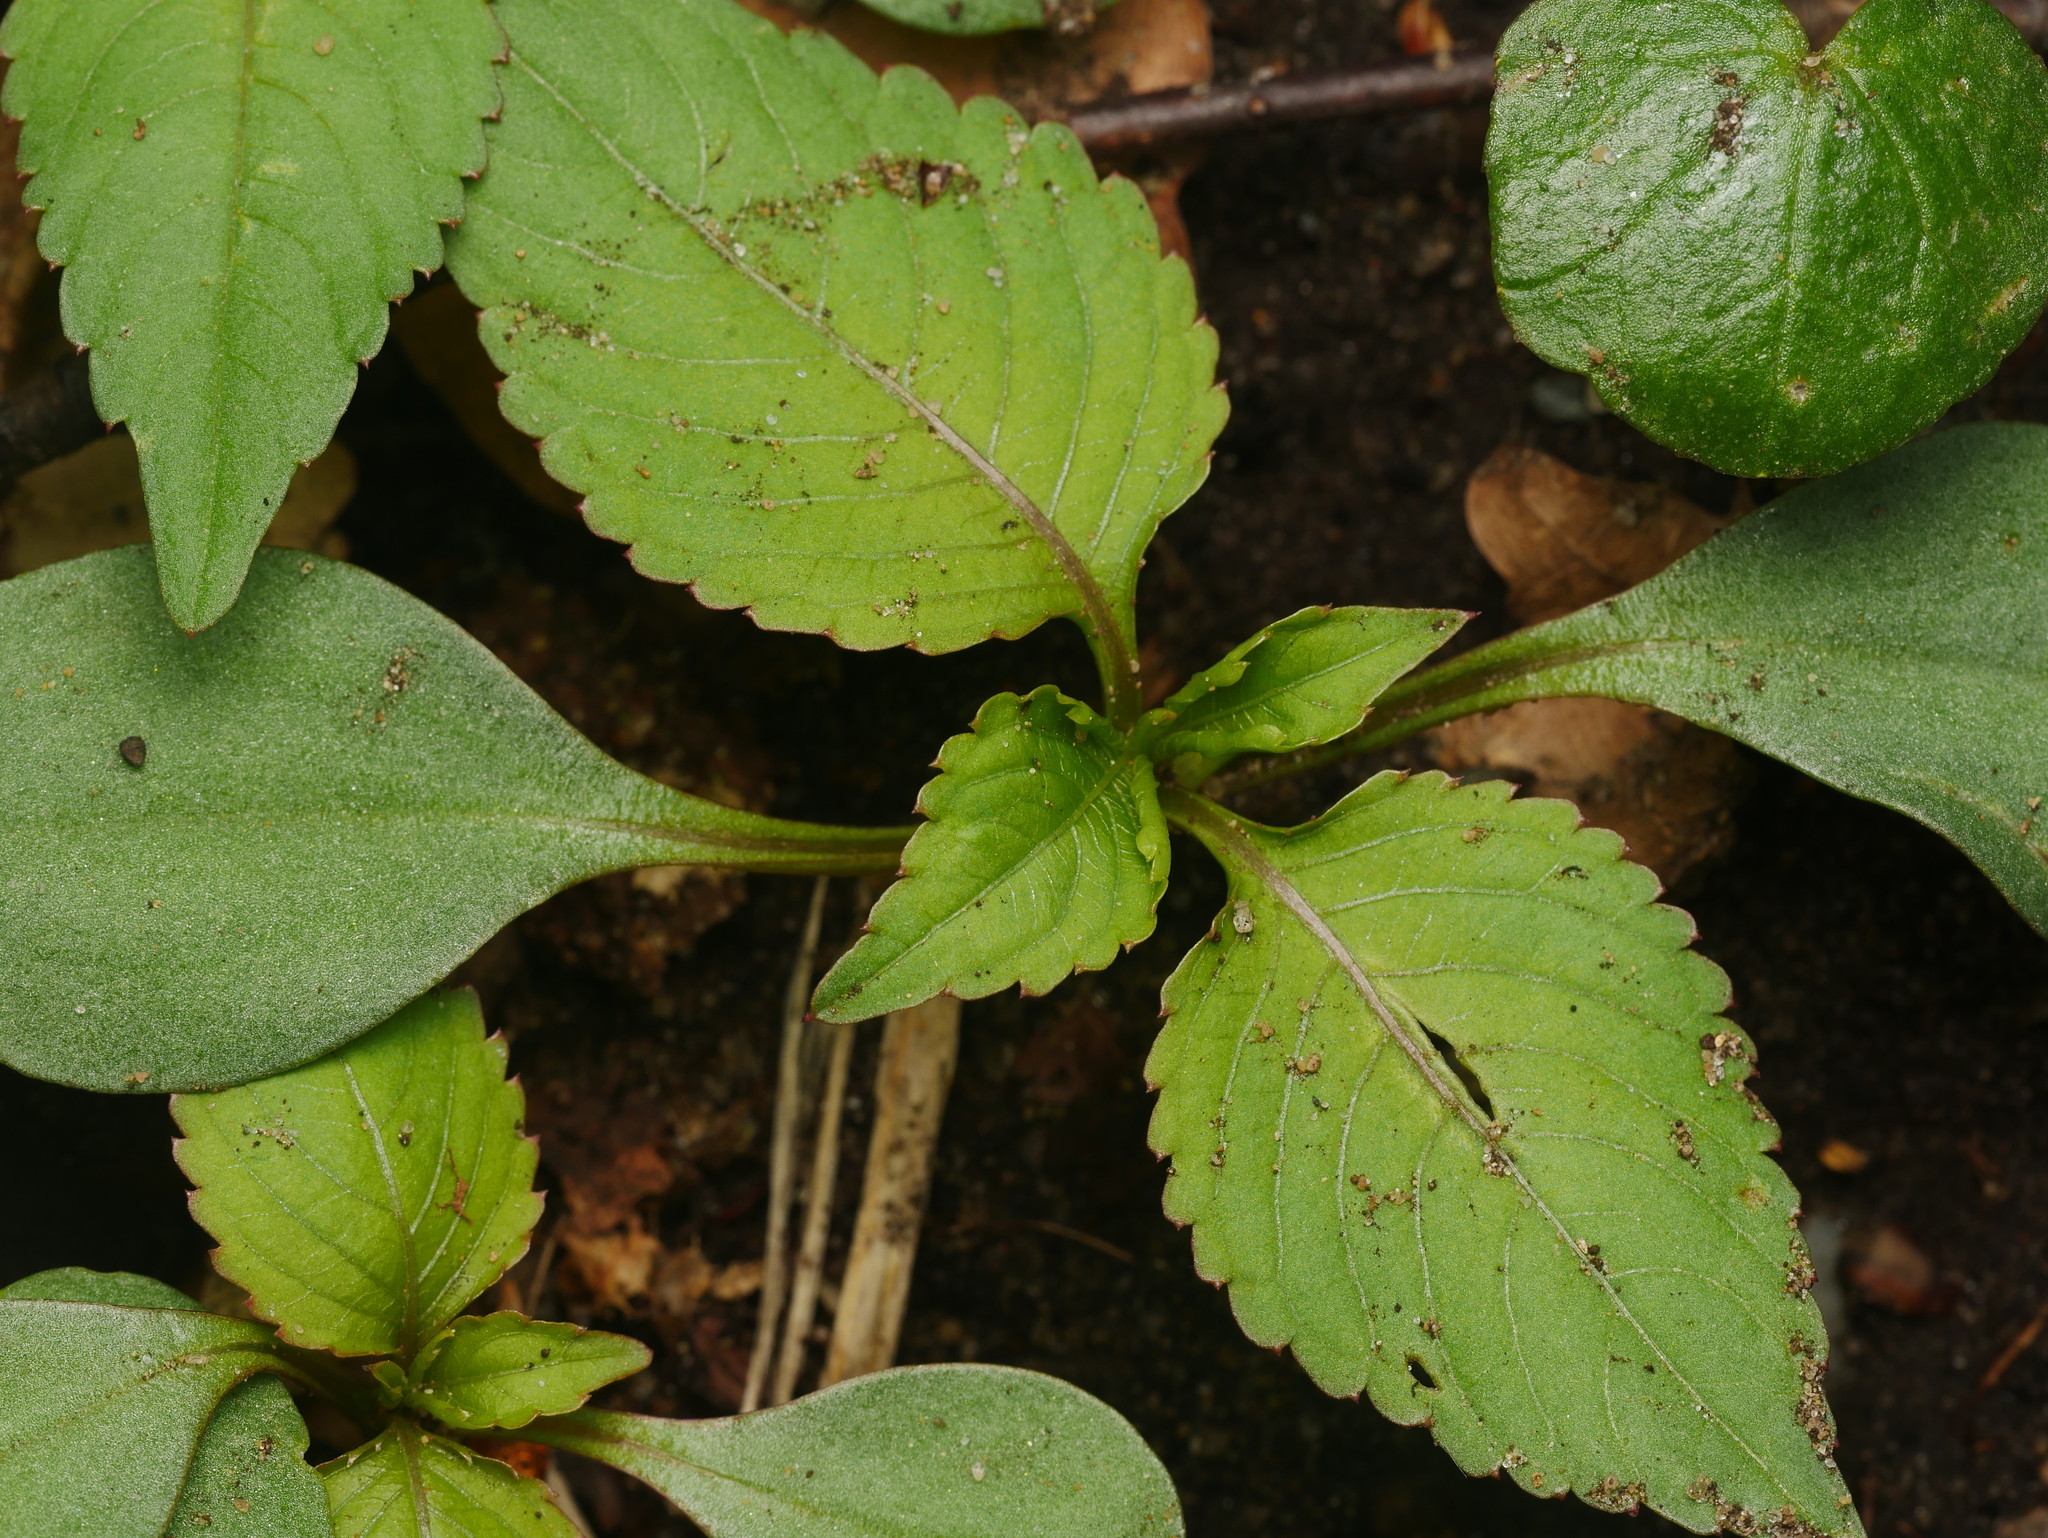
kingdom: Plantae
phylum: Tracheophyta
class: Magnoliopsida
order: Ericales
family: Balsaminaceae
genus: Impatiens
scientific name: Impatiens parviflora
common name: Small balsam
